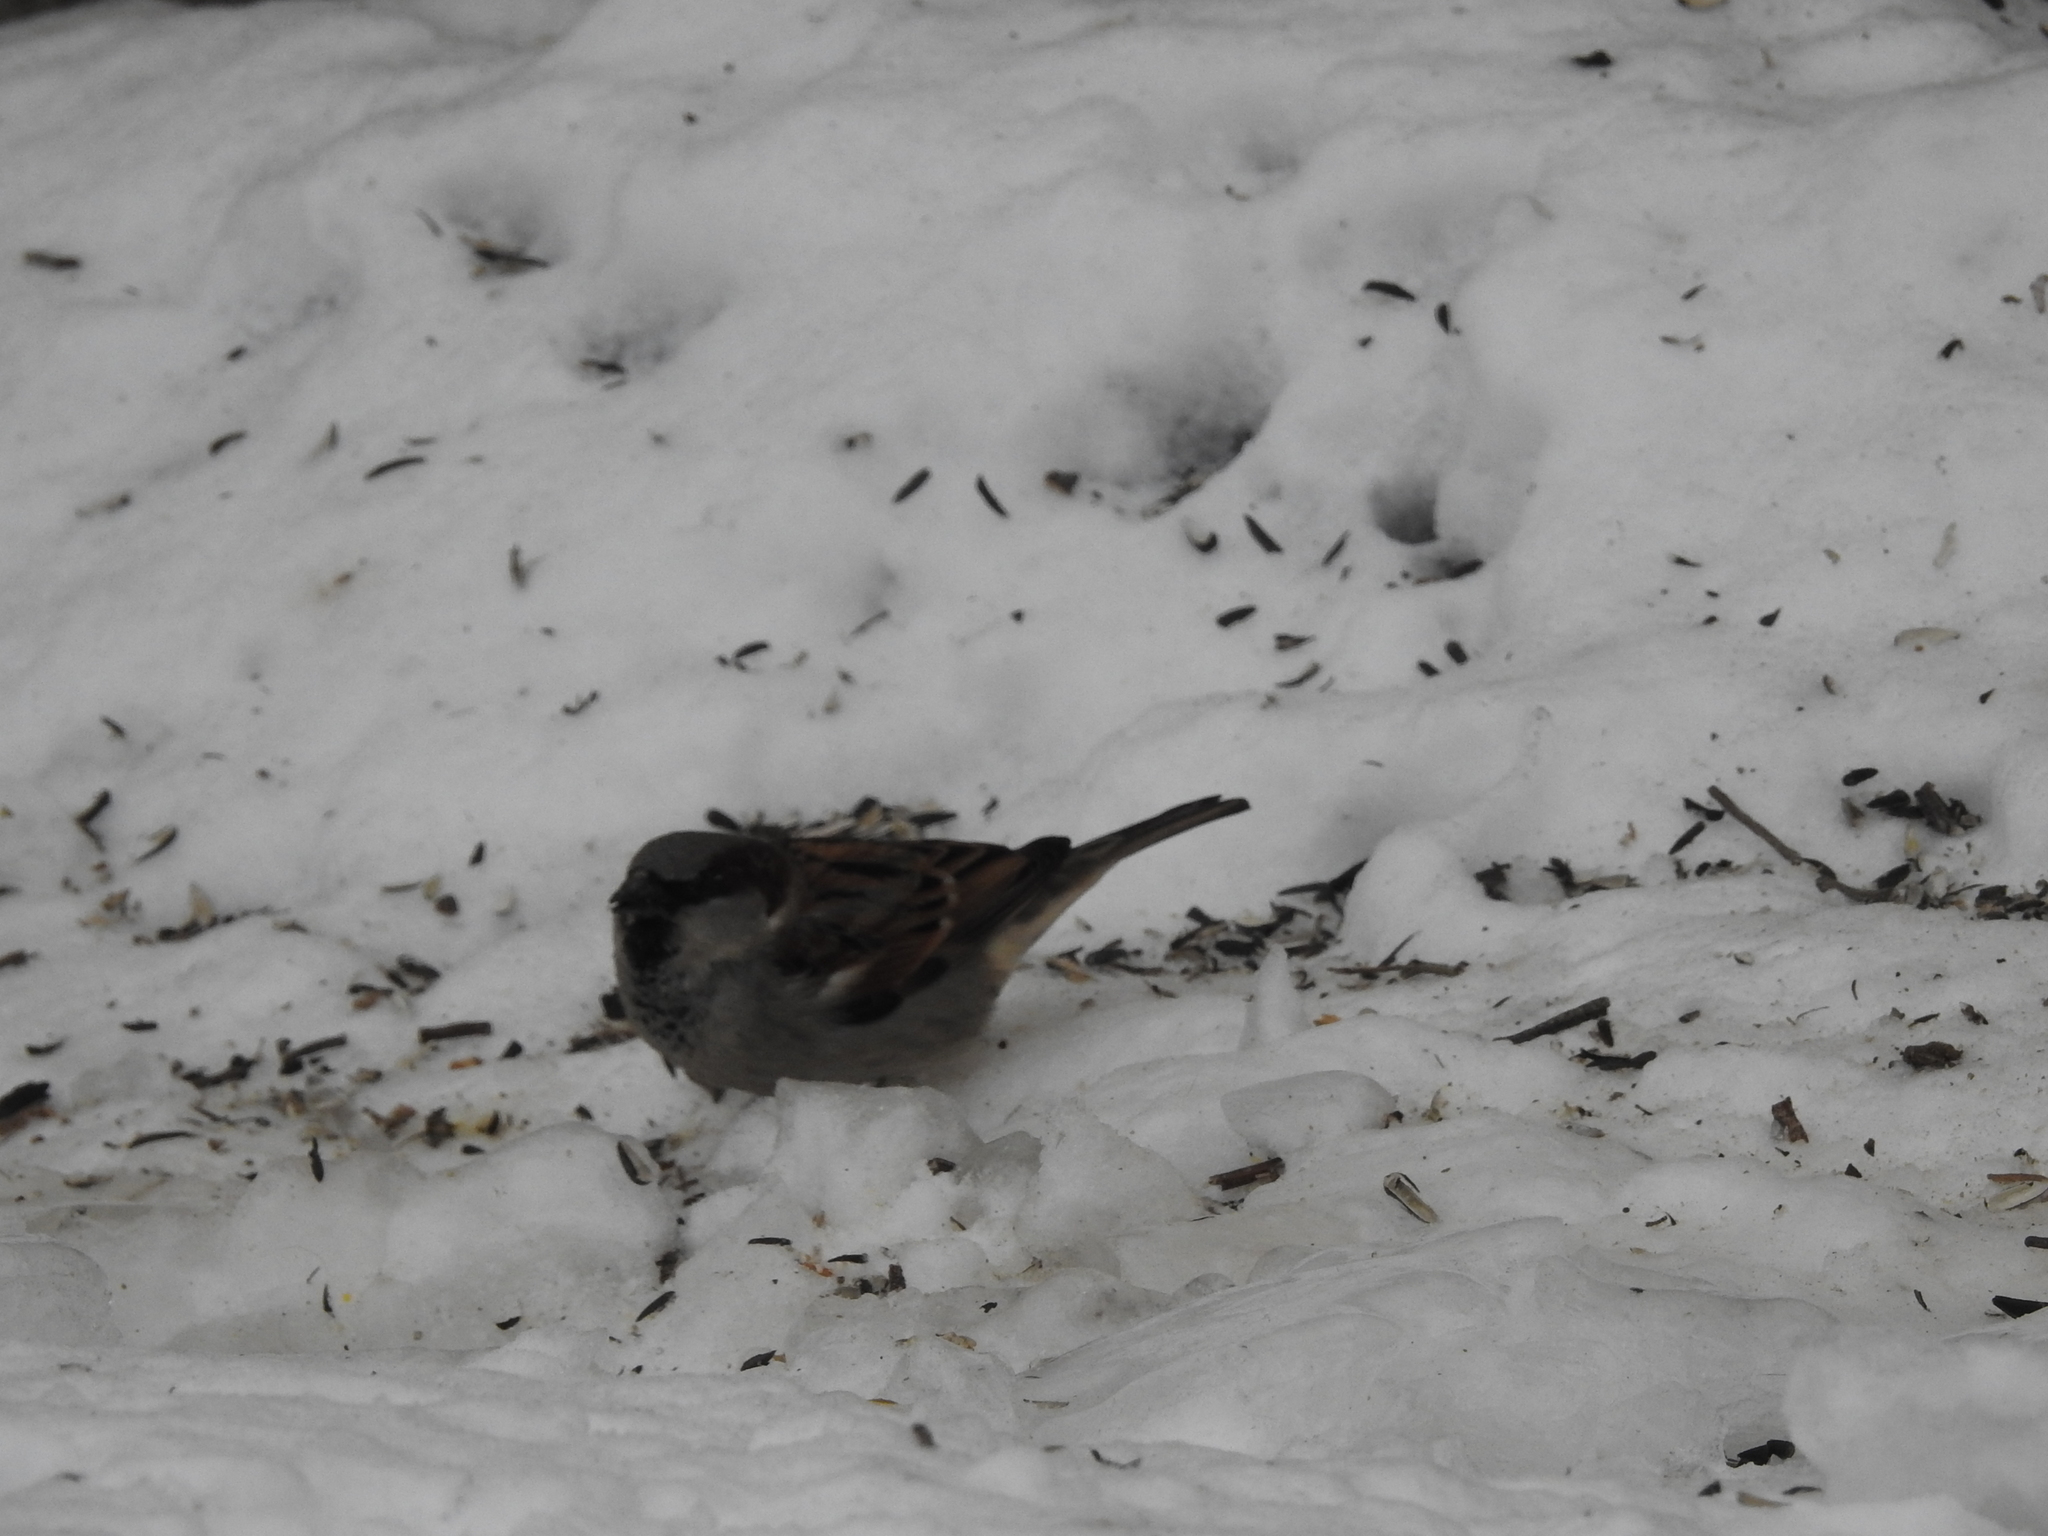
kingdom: Animalia
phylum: Chordata
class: Aves
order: Passeriformes
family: Passeridae
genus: Passer
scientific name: Passer domesticus
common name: House sparrow
